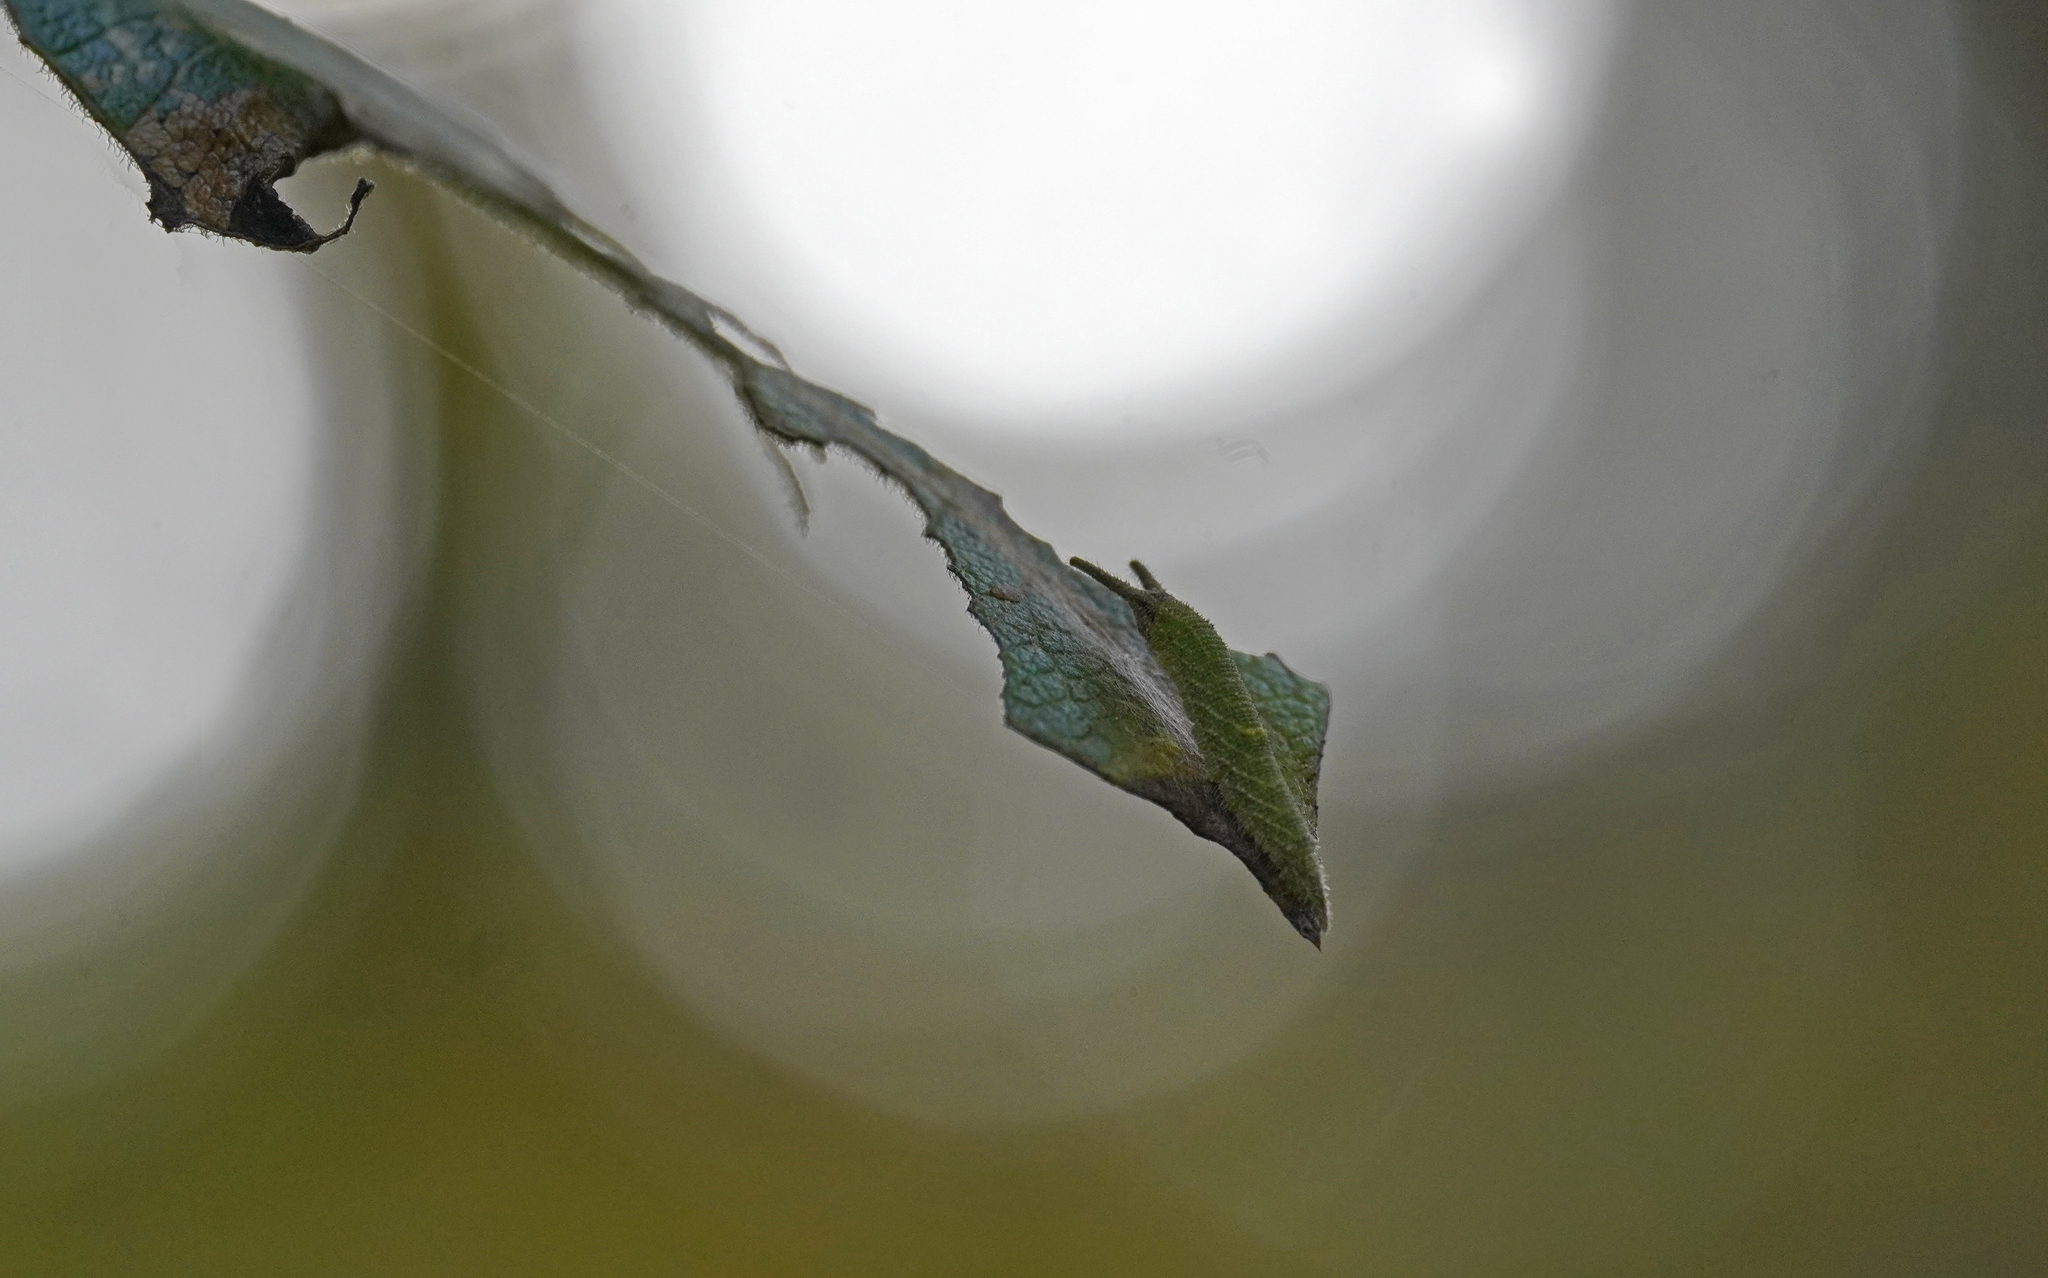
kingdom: Animalia
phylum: Arthropoda
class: Insecta
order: Lepidoptera
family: Nymphalidae
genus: Apatura
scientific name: Apatura iris
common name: Purple emperor
